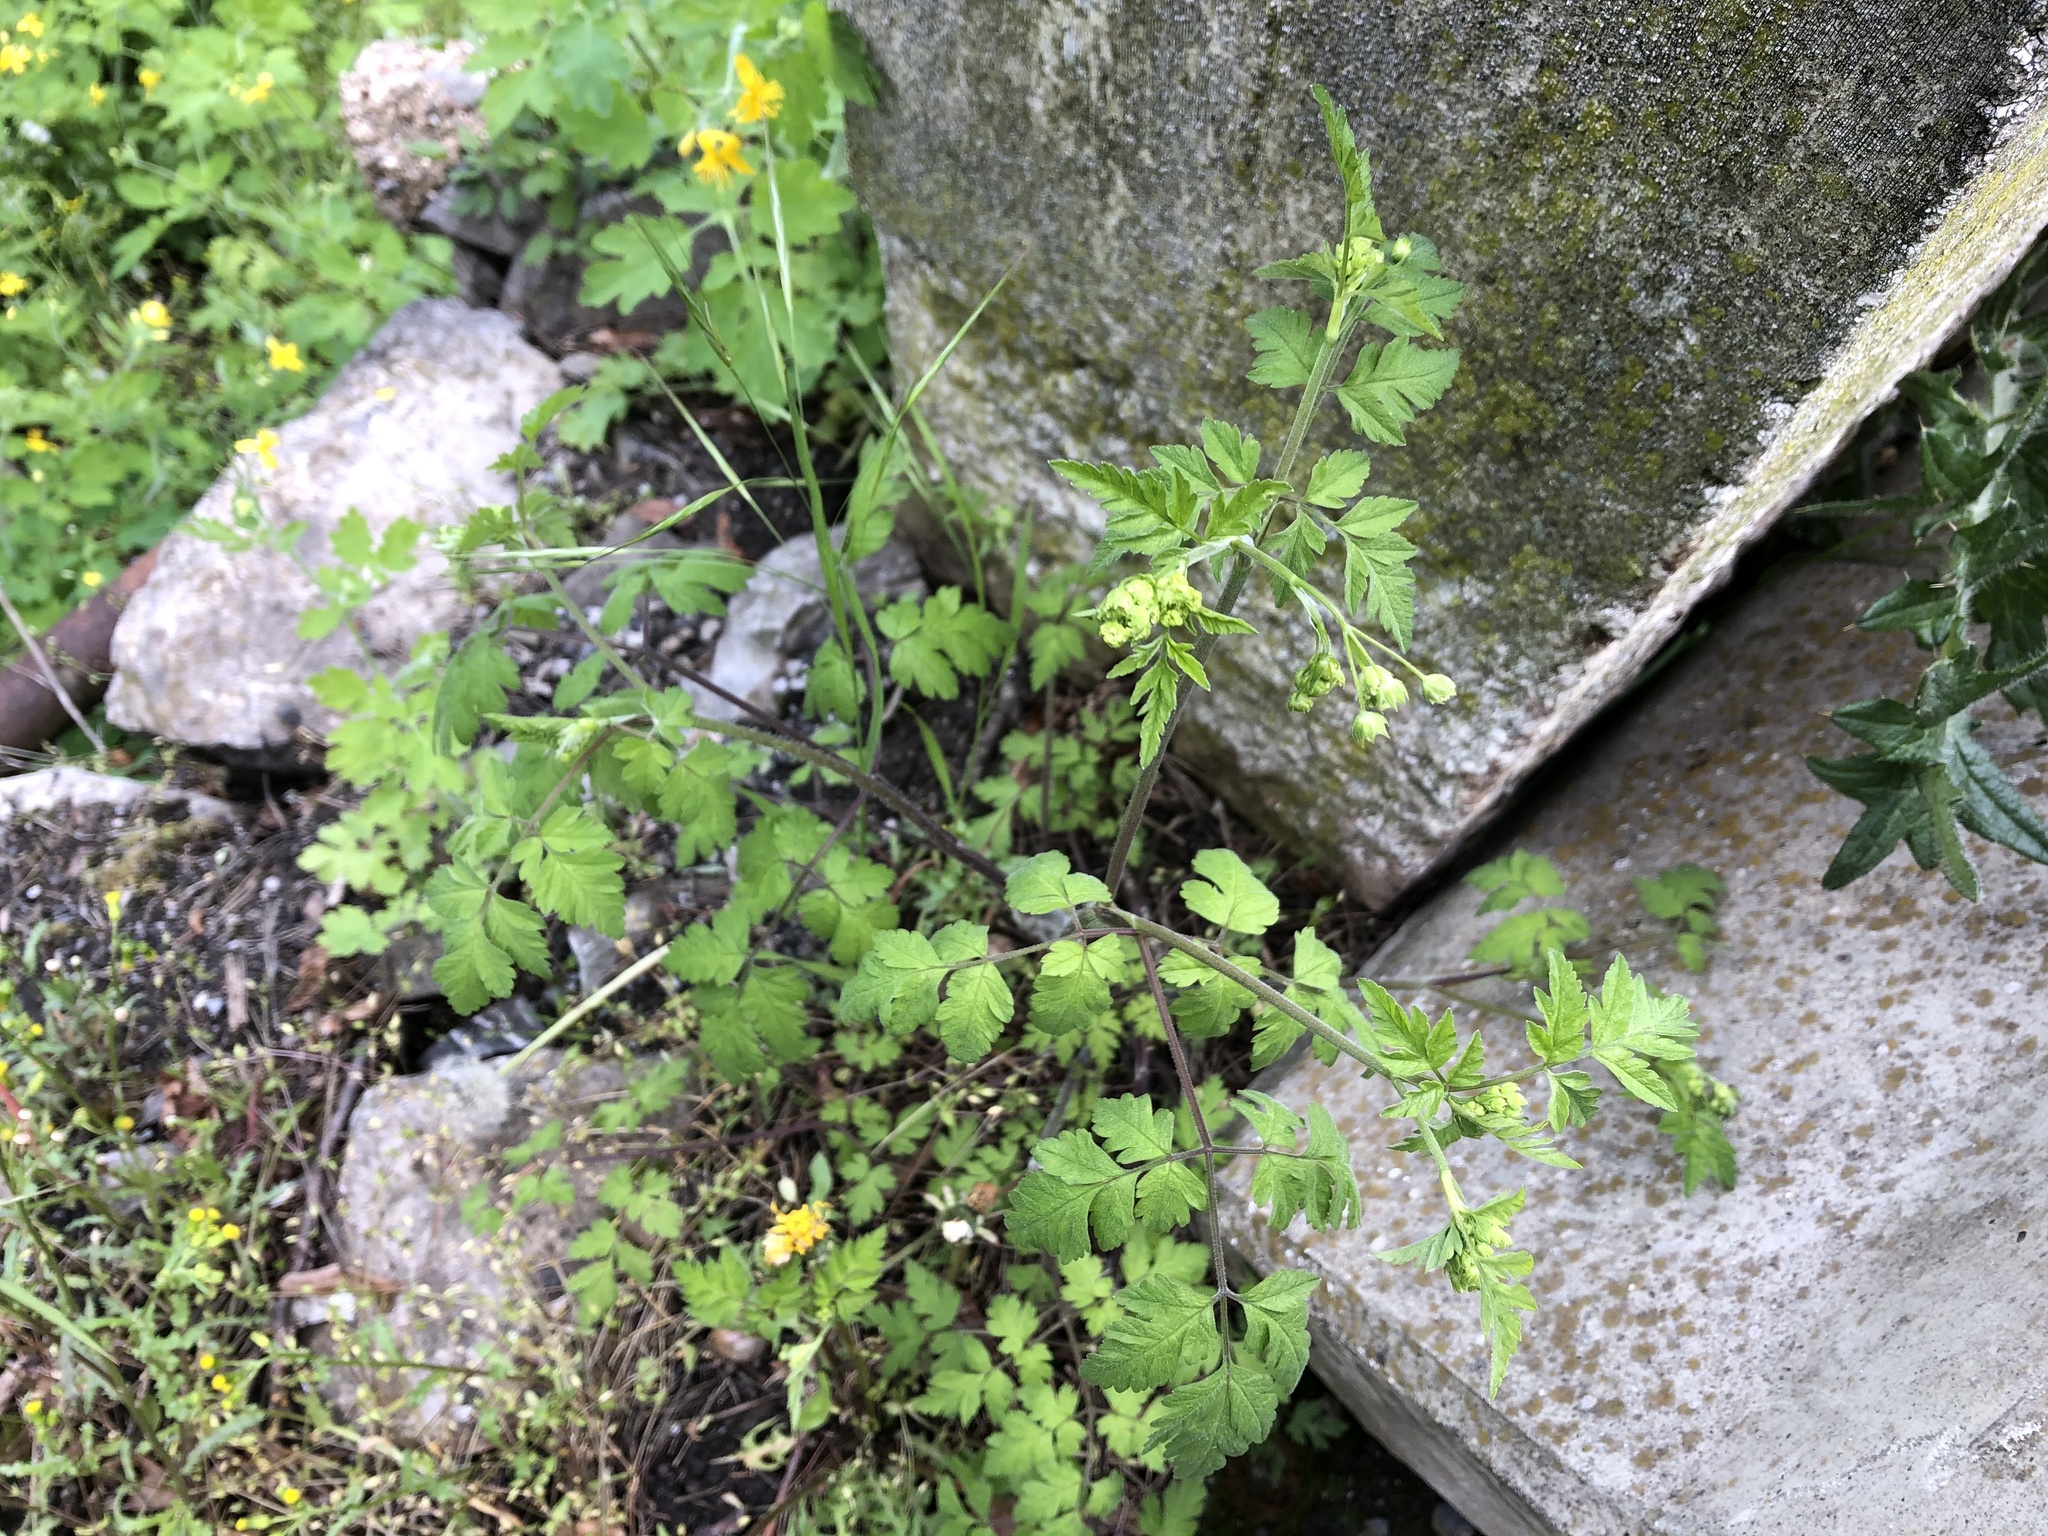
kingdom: Plantae
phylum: Tracheophyta
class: Magnoliopsida
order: Apiales
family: Apiaceae
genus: Chaerophyllum
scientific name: Chaerophyllum temulum
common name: Rough chervil
